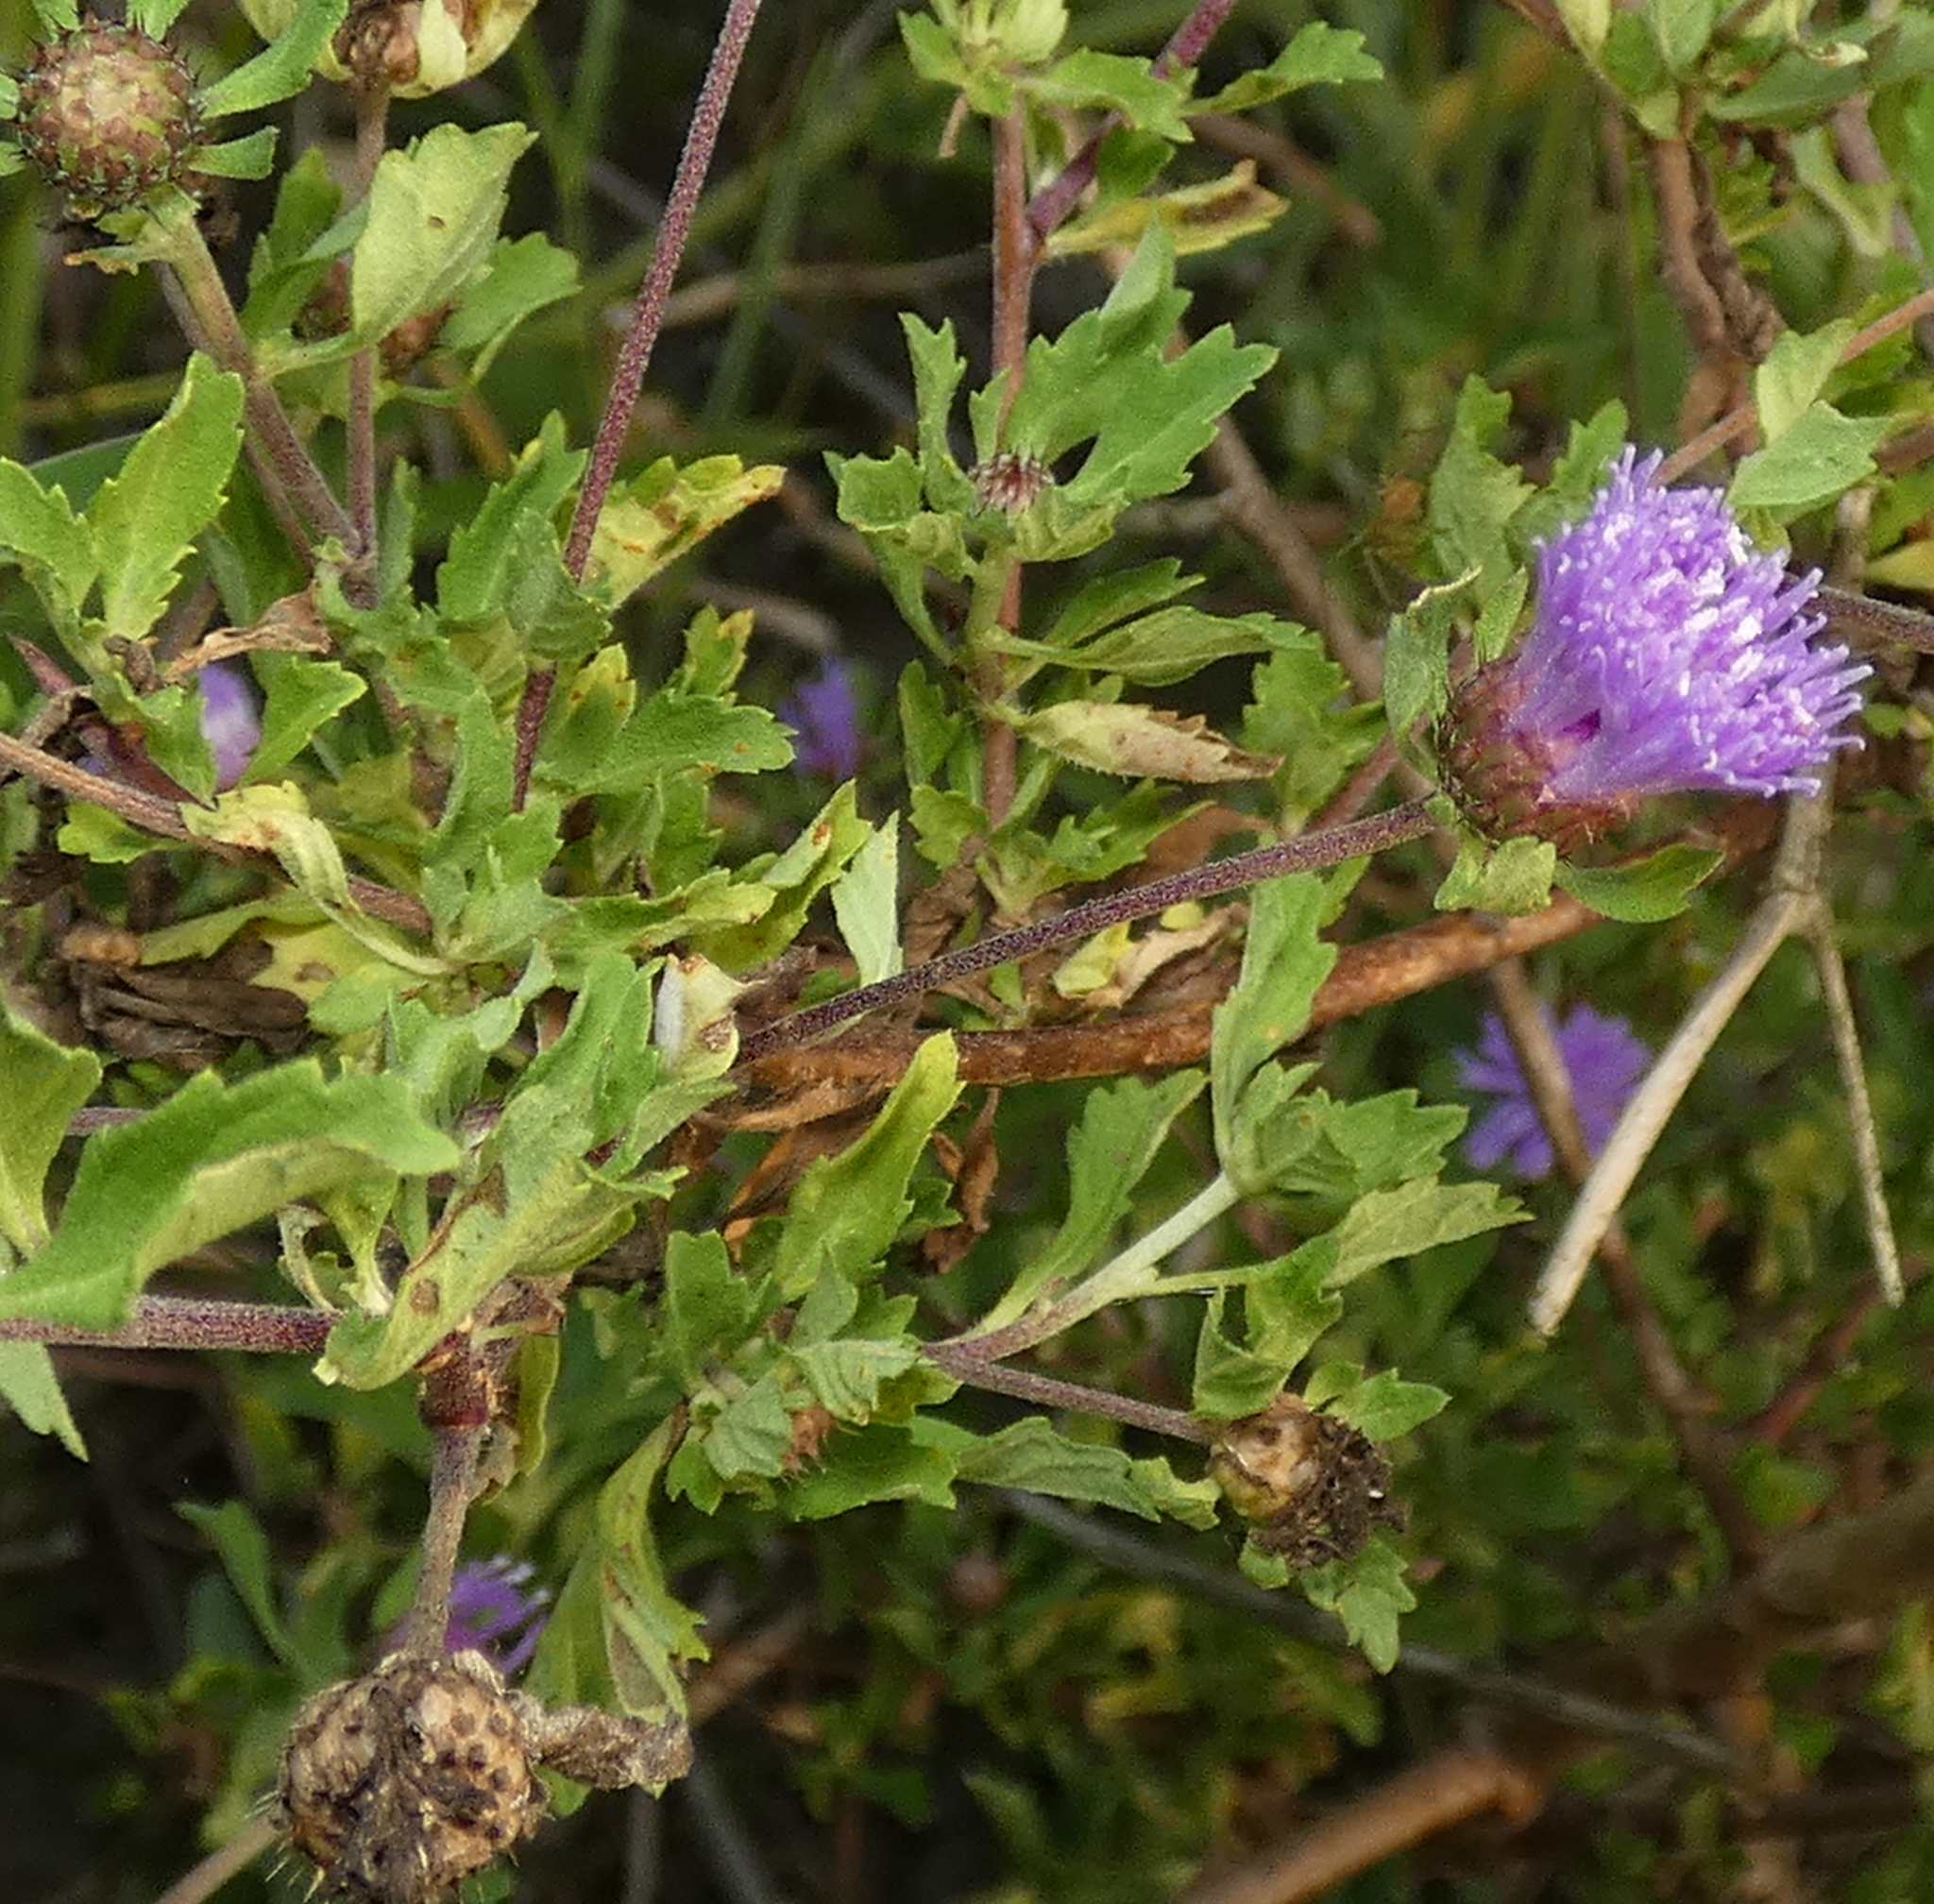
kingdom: Plantae
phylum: Tracheophyta
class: Magnoliopsida
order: Asterales
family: Asteraceae
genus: Centratherum
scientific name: Centratherum punctatum
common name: Larkdaisy
